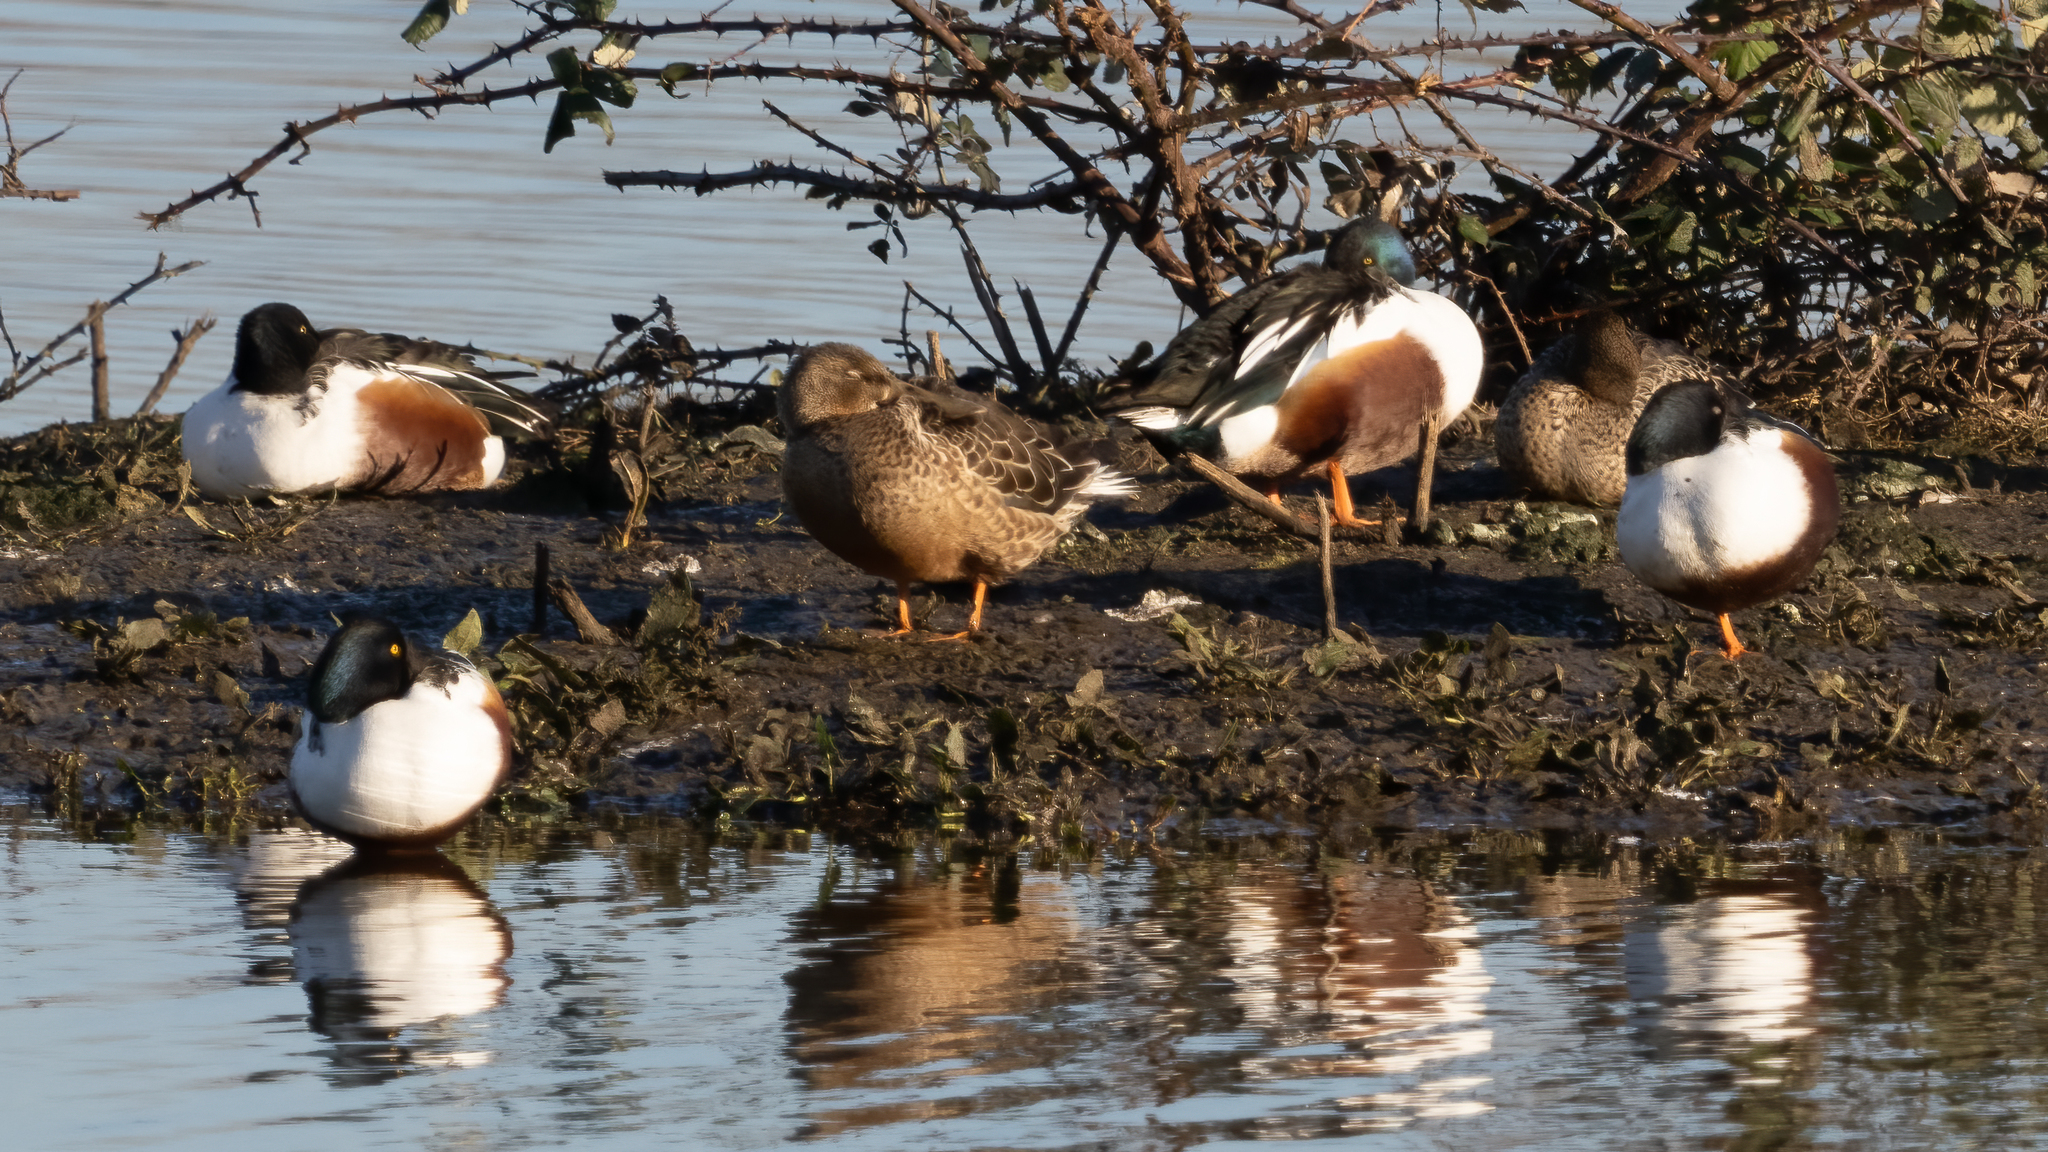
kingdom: Animalia
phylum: Chordata
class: Aves
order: Anseriformes
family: Anatidae
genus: Spatula
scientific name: Spatula clypeata
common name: Northern shoveler
